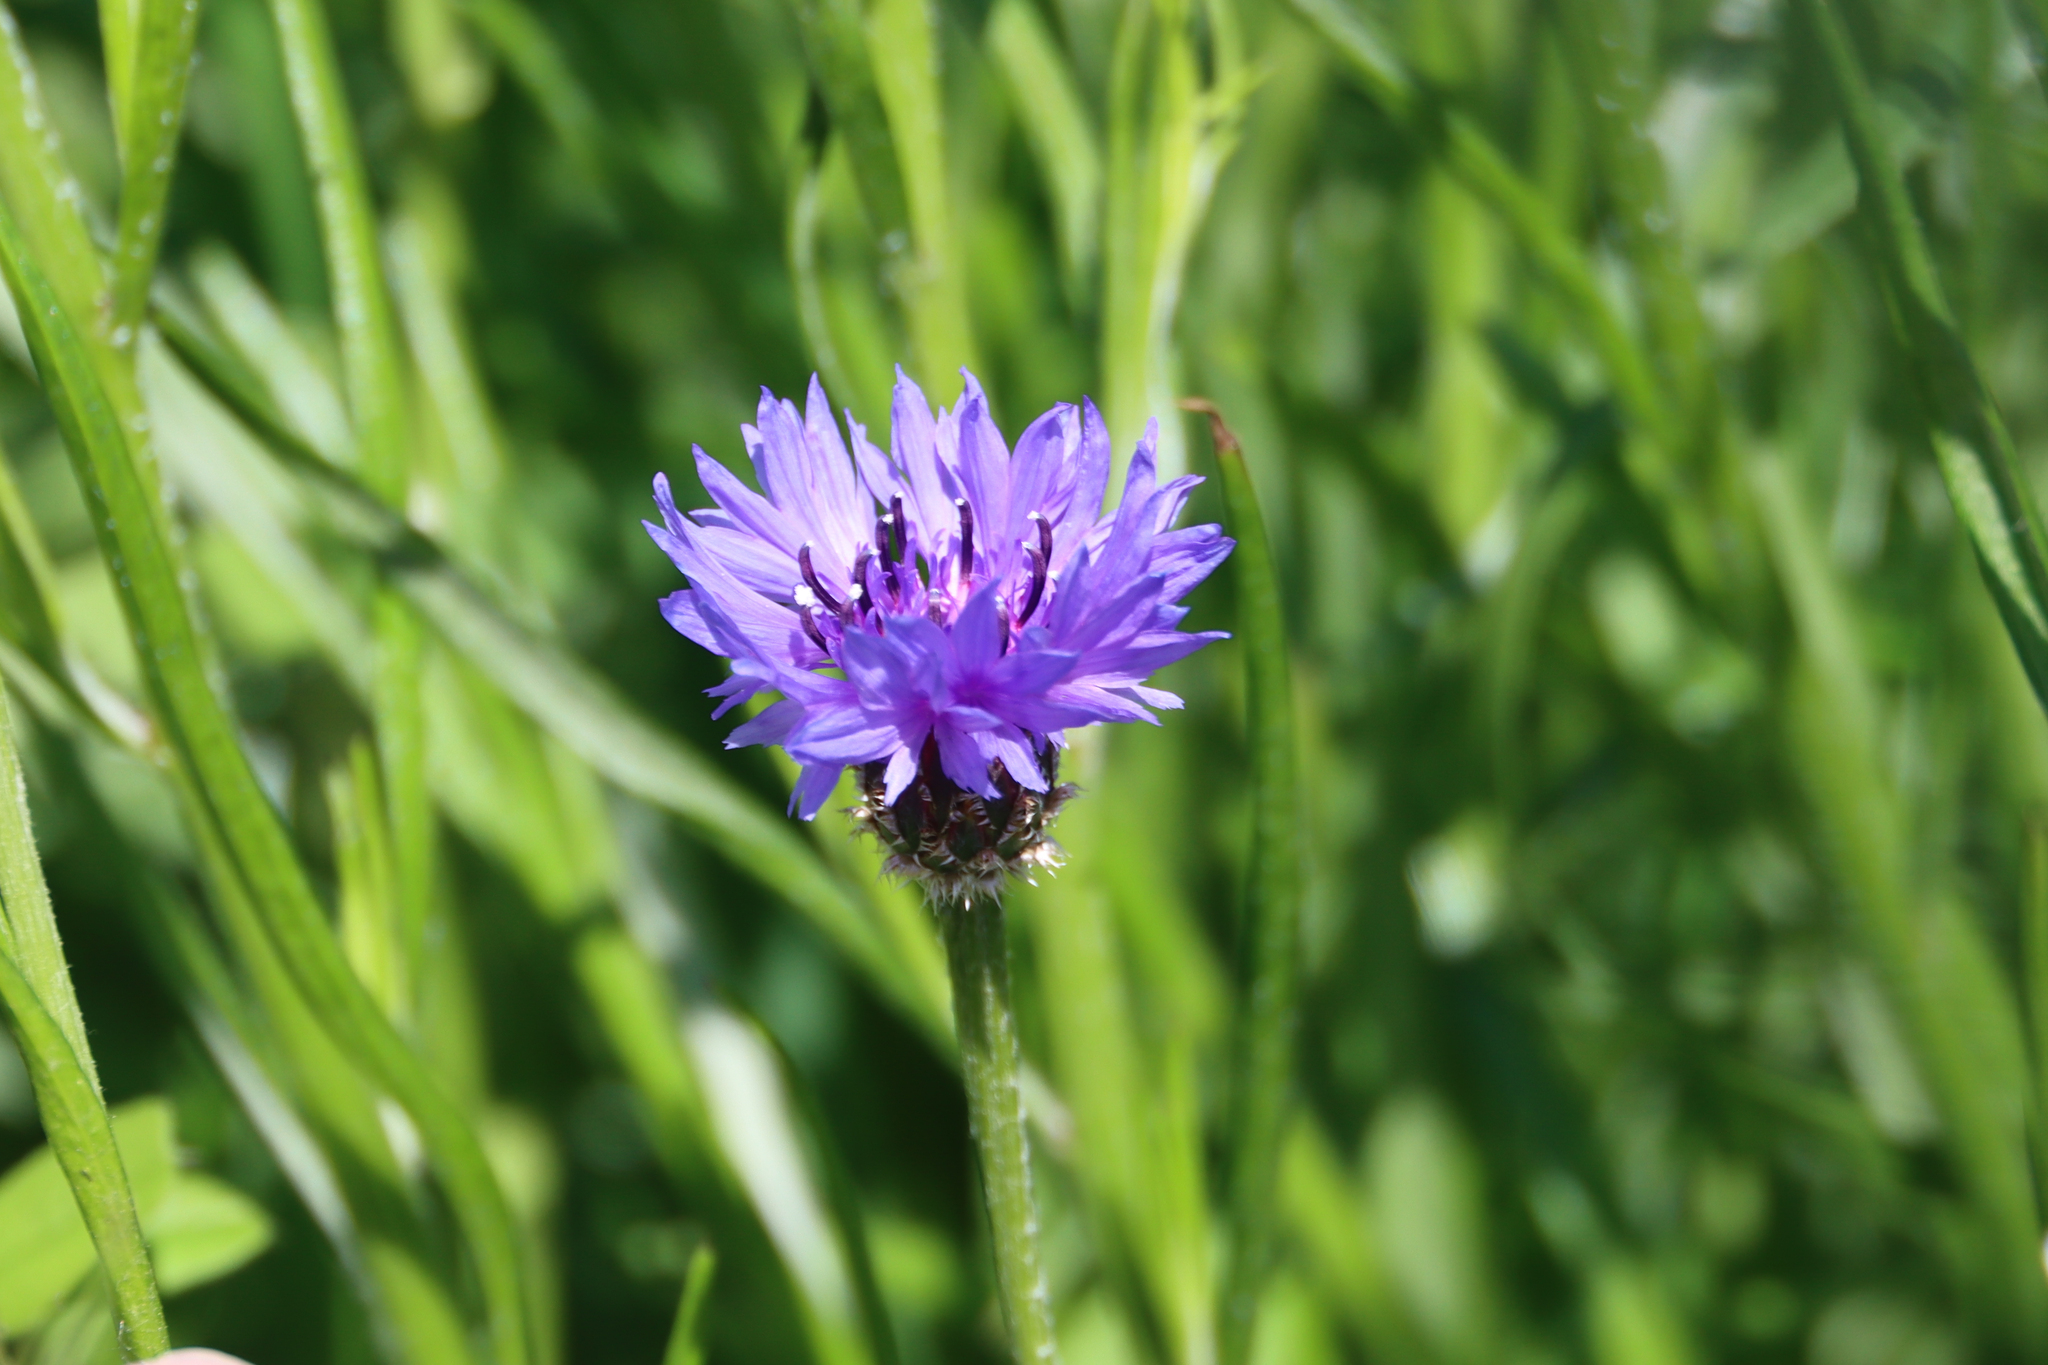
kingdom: Plantae
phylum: Tracheophyta
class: Magnoliopsida
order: Asterales
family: Asteraceae
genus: Centaurea
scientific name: Centaurea cyanus
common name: Cornflower
